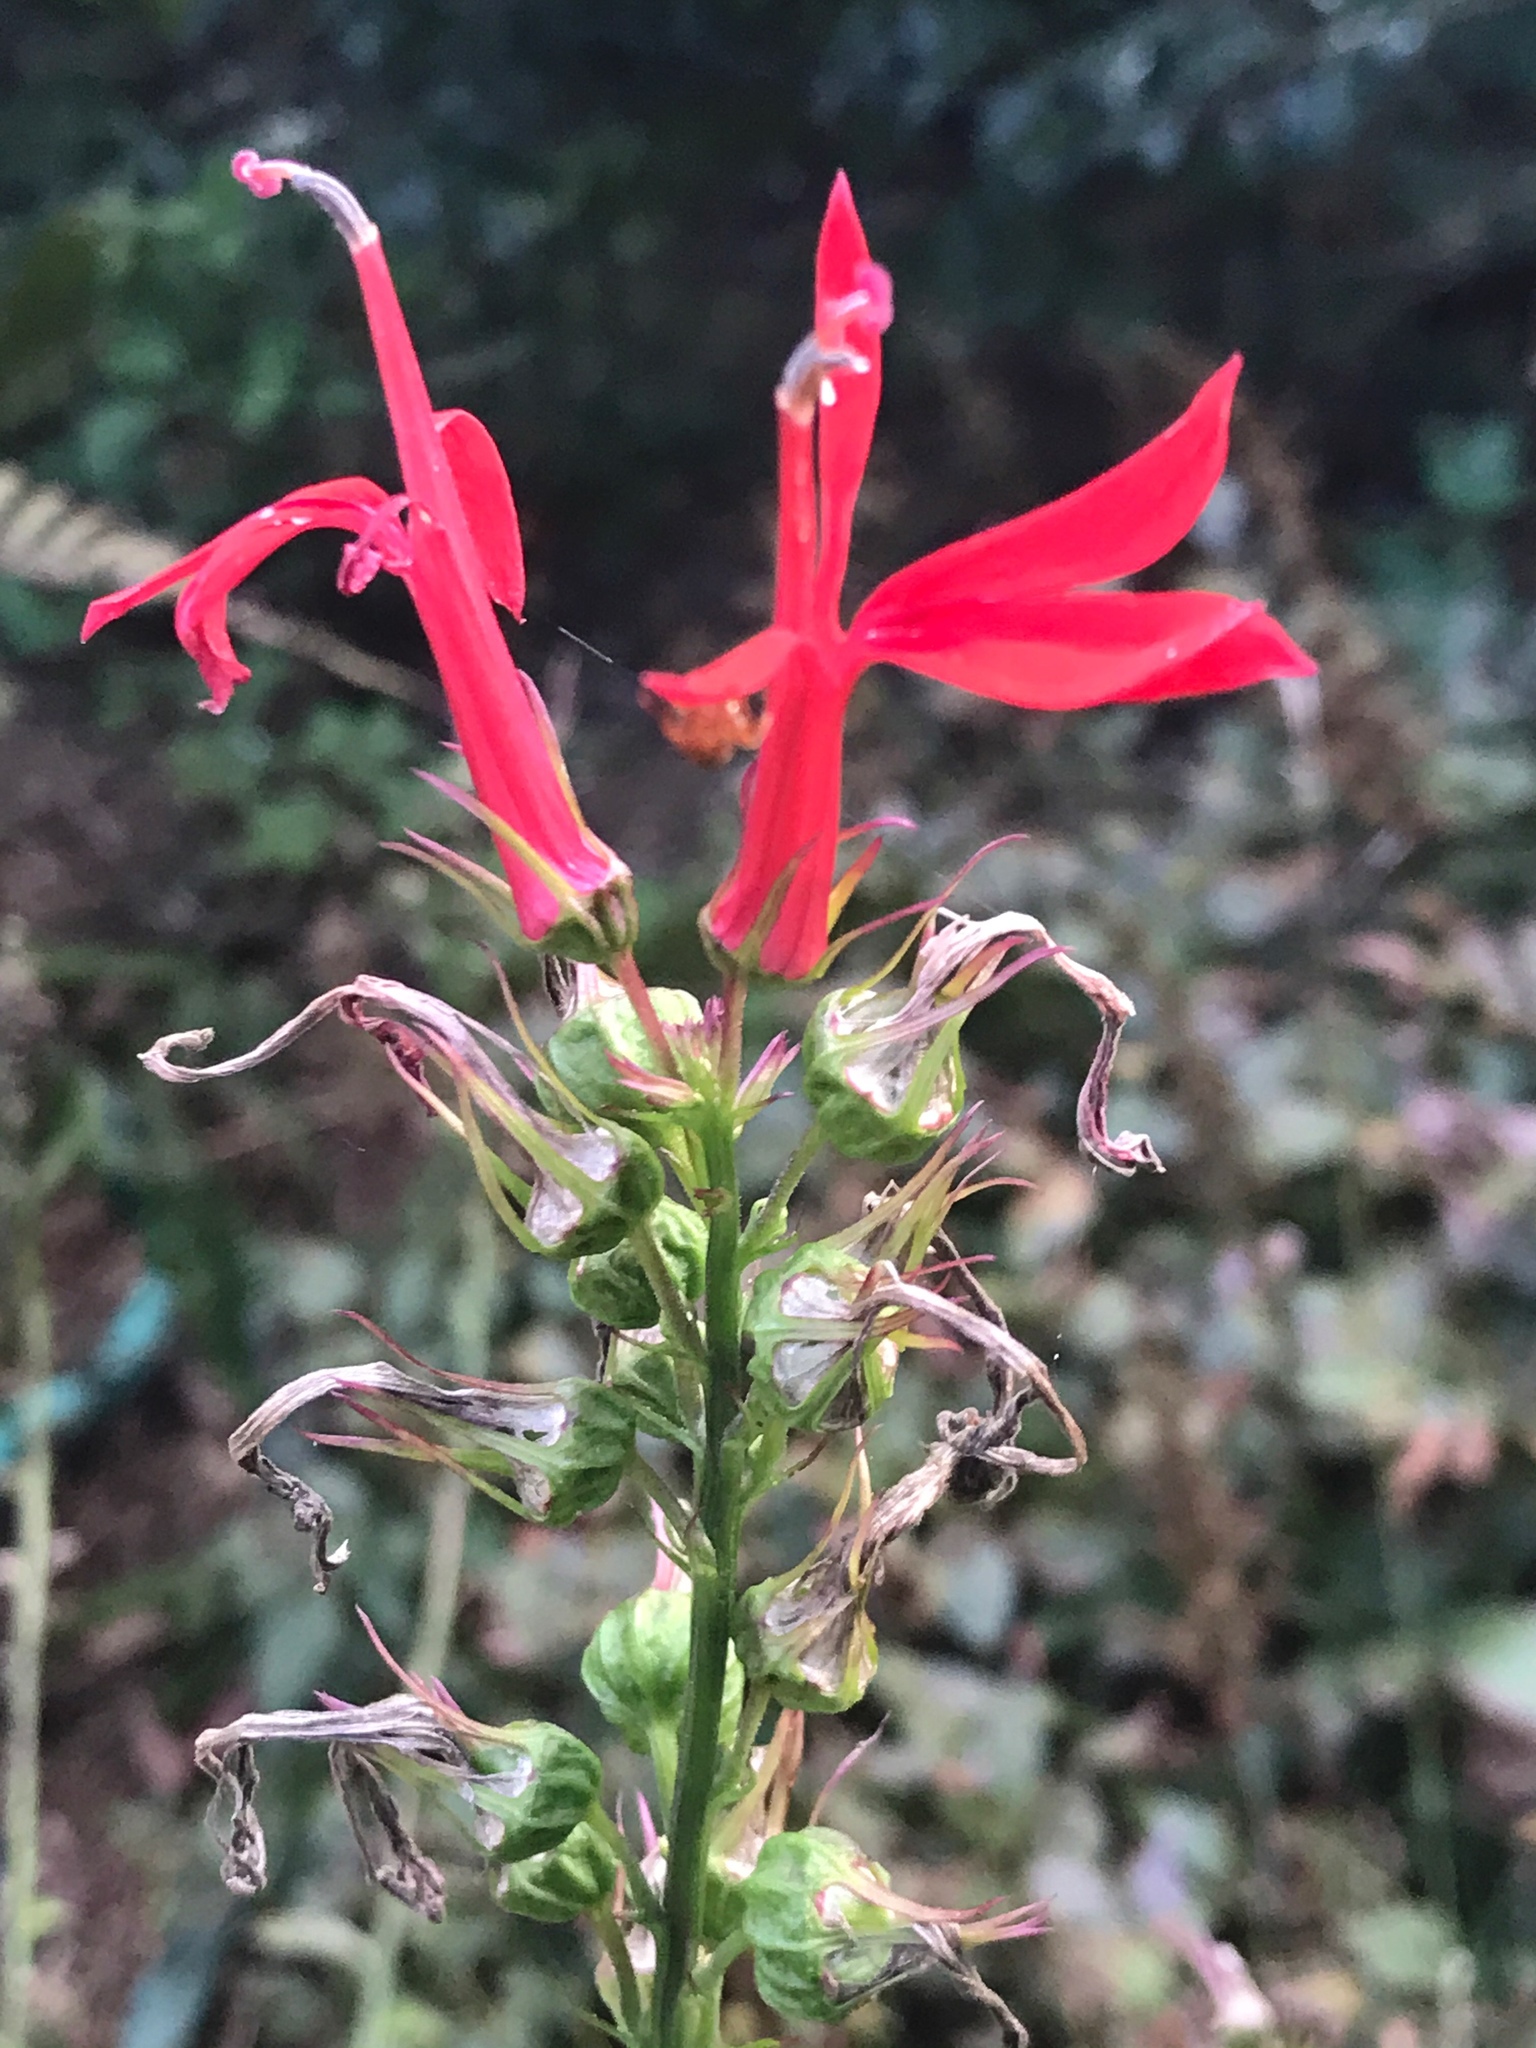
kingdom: Plantae
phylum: Tracheophyta
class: Magnoliopsida
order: Asterales
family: Campanulaceae
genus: Lobelia
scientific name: Lobelia cardinalis
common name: Cardinal flower
